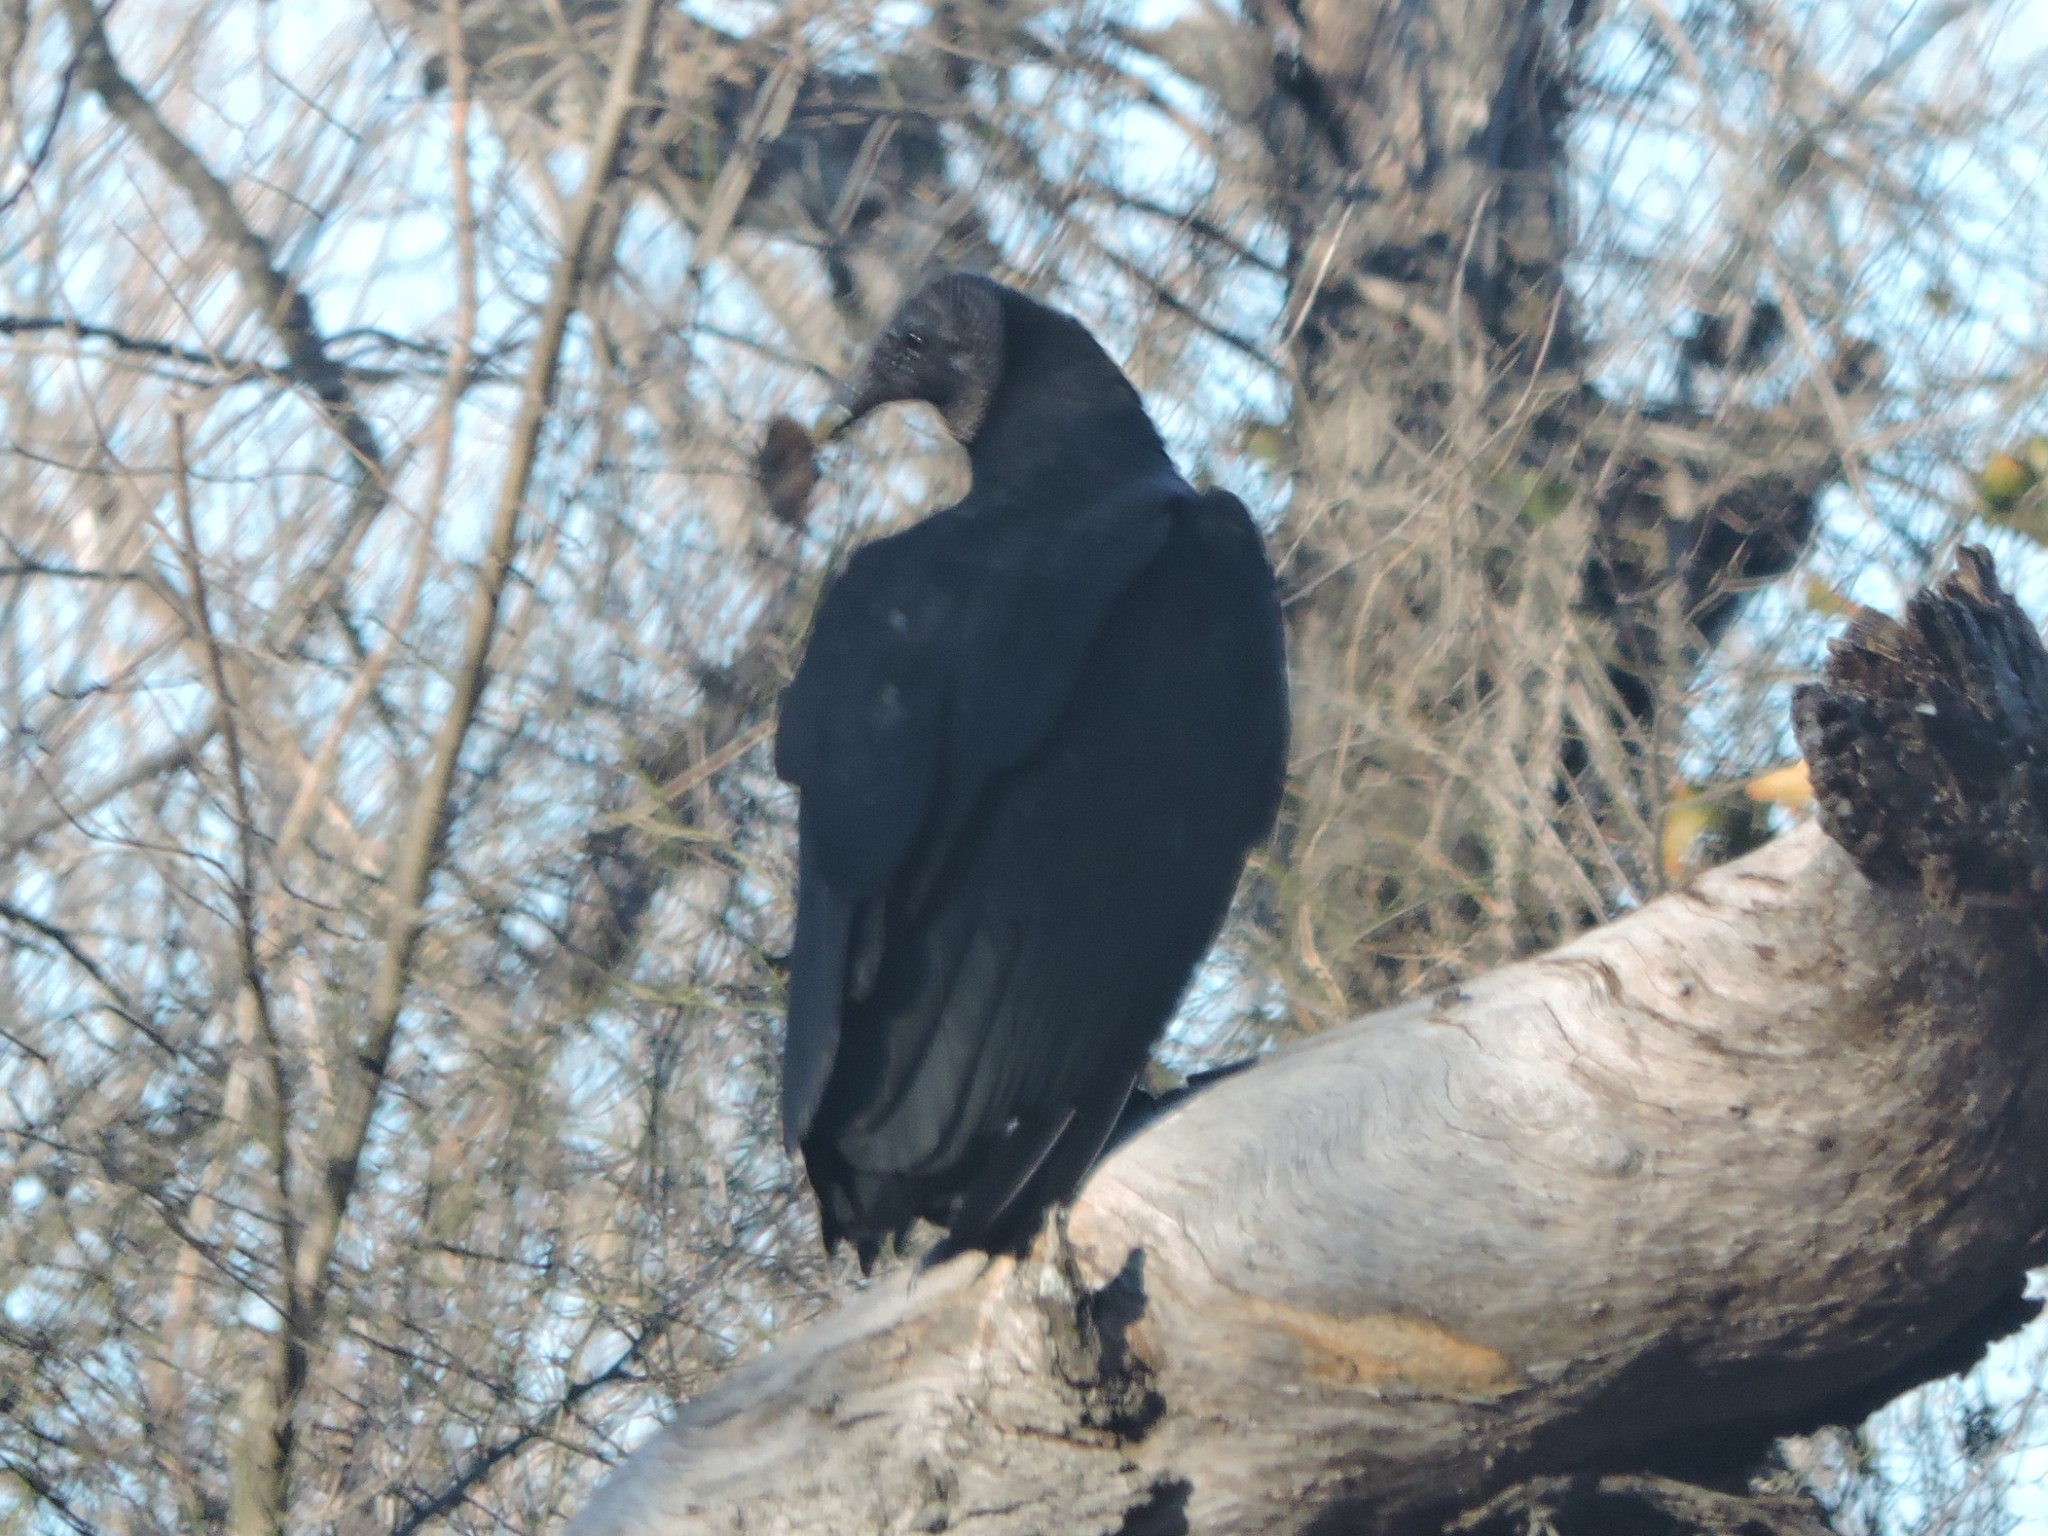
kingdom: Animalia
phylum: Chordata
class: Aves
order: Accipitriformes
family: Cathartidae
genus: Coragyps
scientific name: Coragyps atratus
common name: Black vulture
